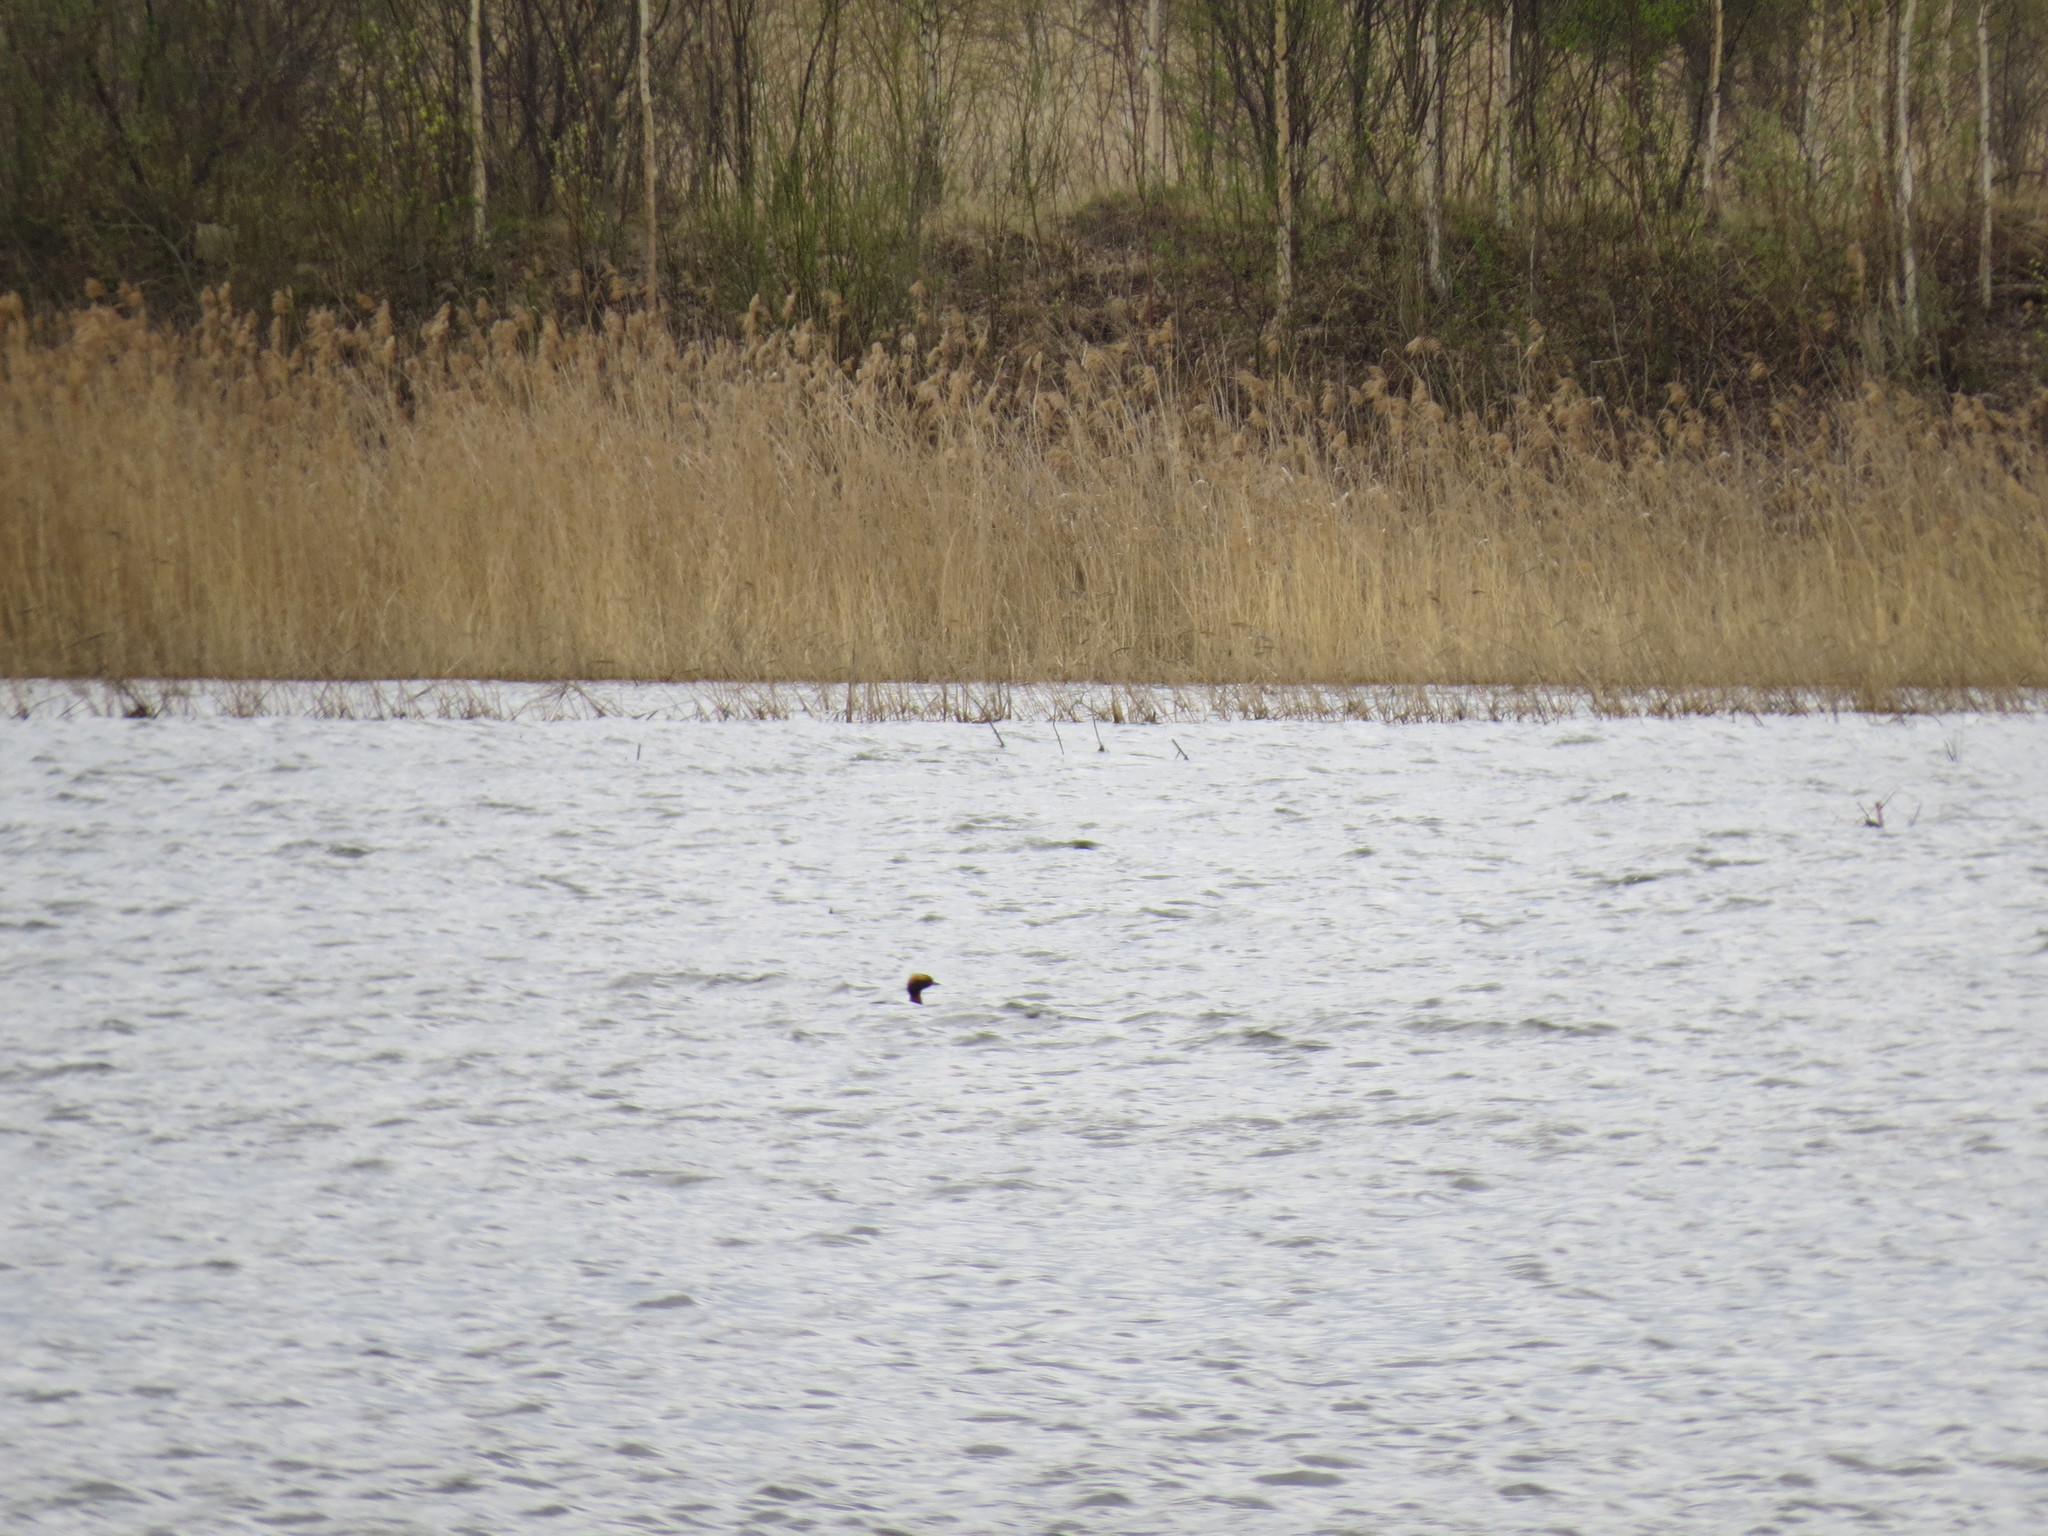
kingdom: Animalia
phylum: Chordata
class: Aves
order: Podicipediformes
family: Podicipedidae
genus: Podiceps
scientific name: Podiceps auritus
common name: Horned grebe
